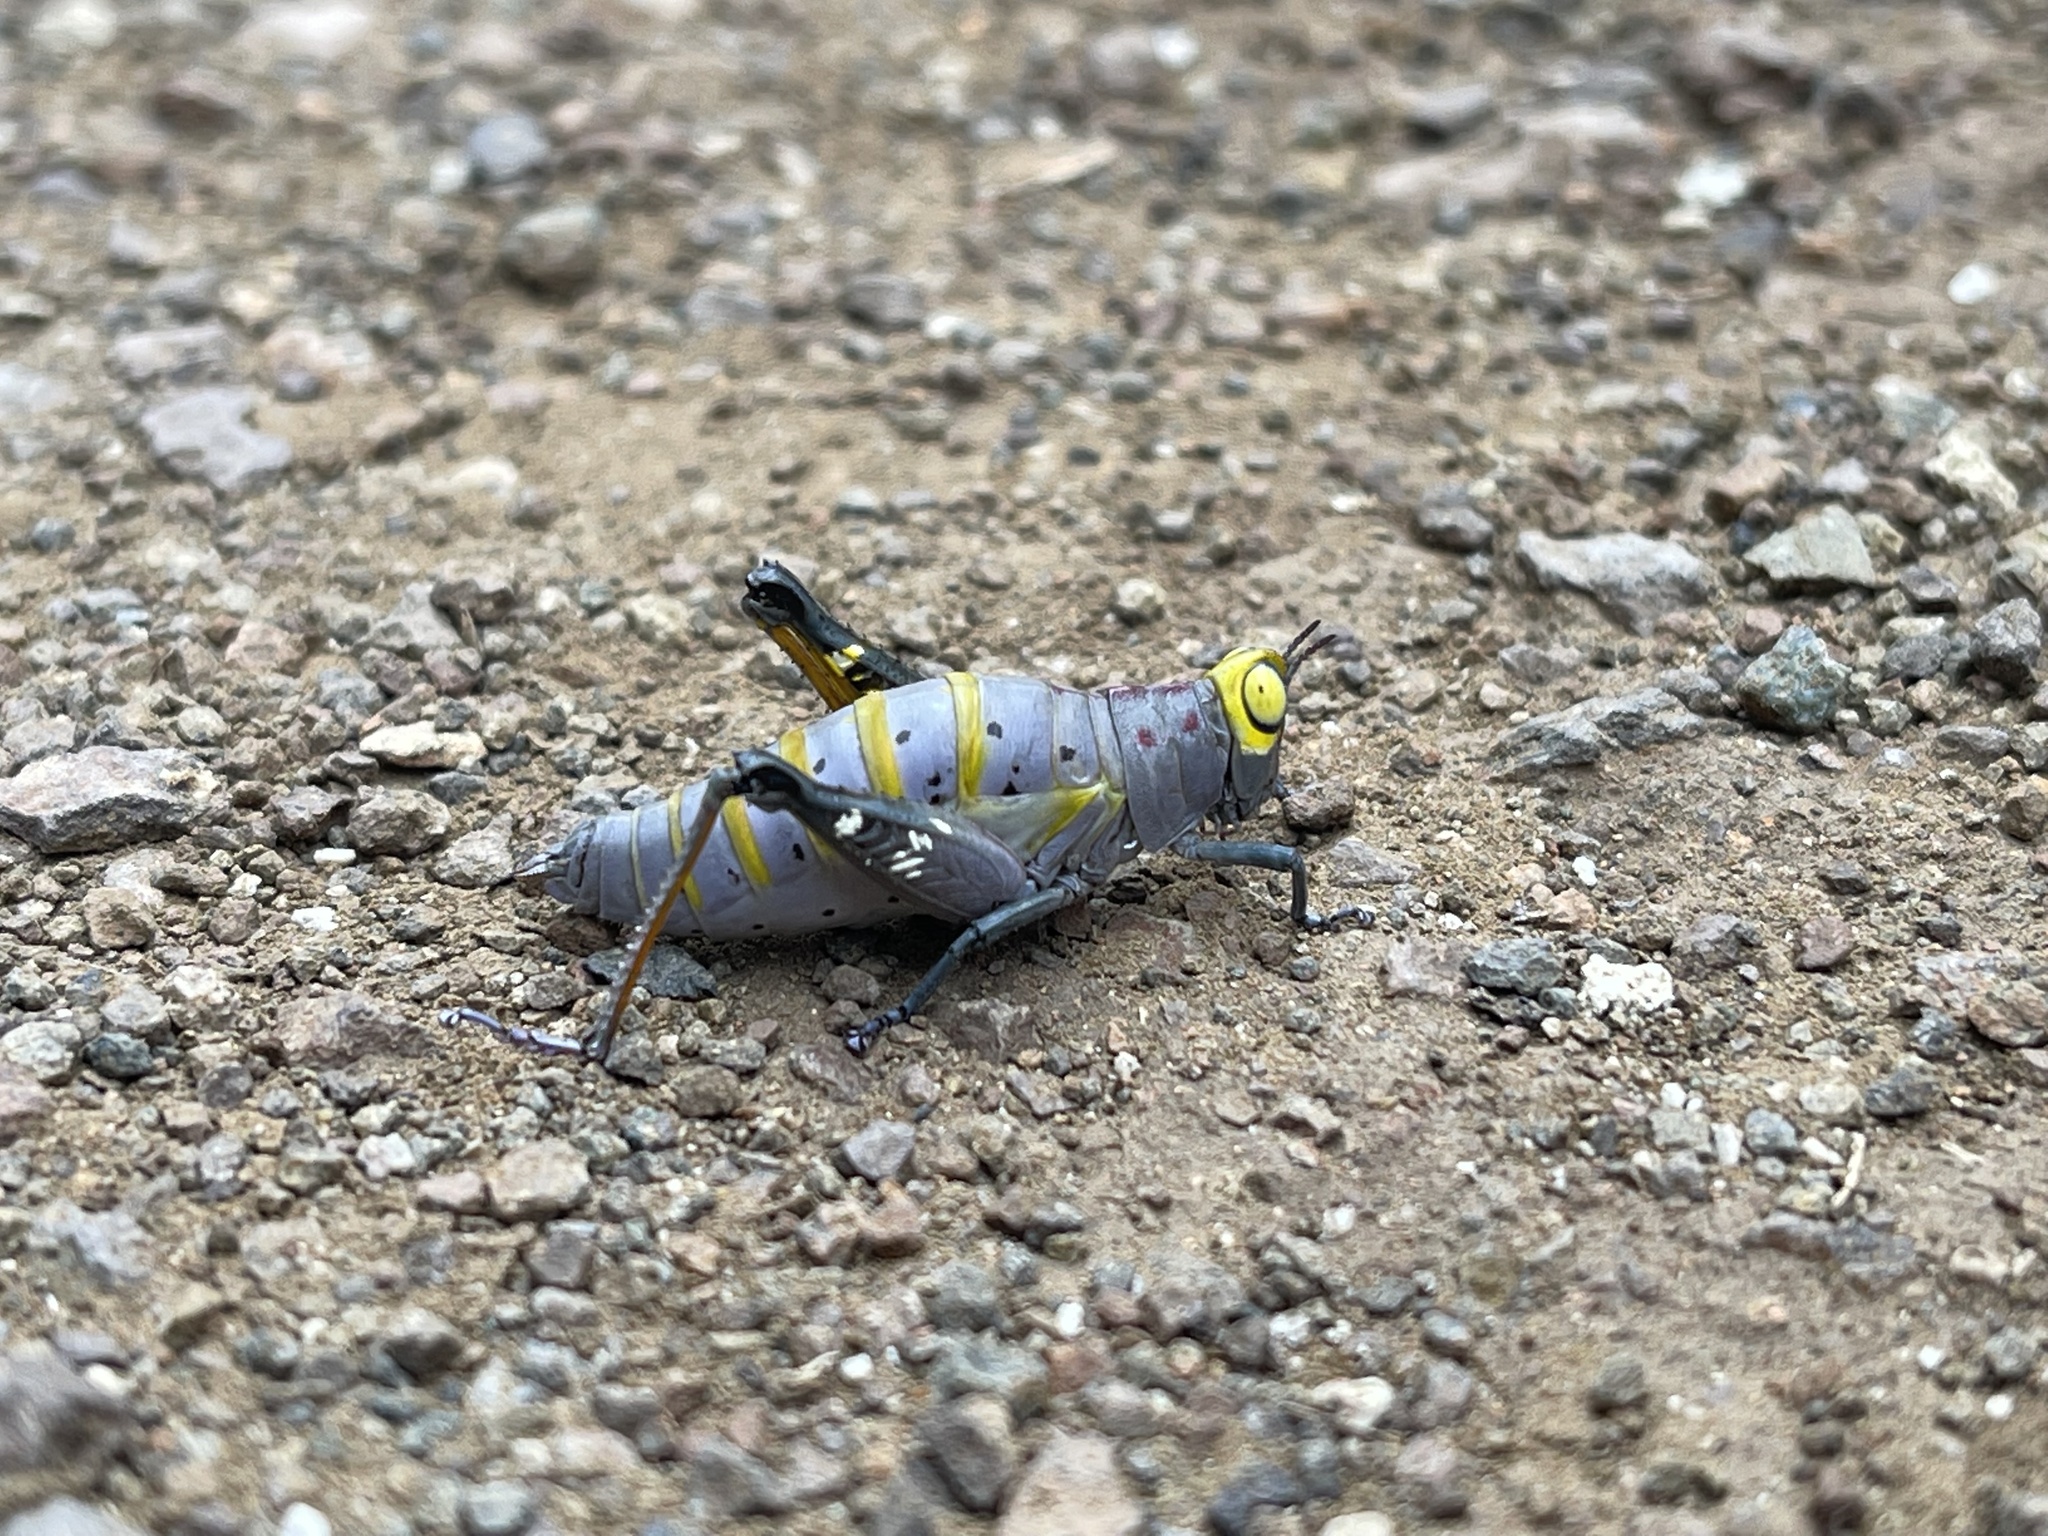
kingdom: Animalia
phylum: Arthropoda
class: Insecta
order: Orthoptera
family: Thericleidae
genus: Thericles
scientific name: Thericles obtusifrons
